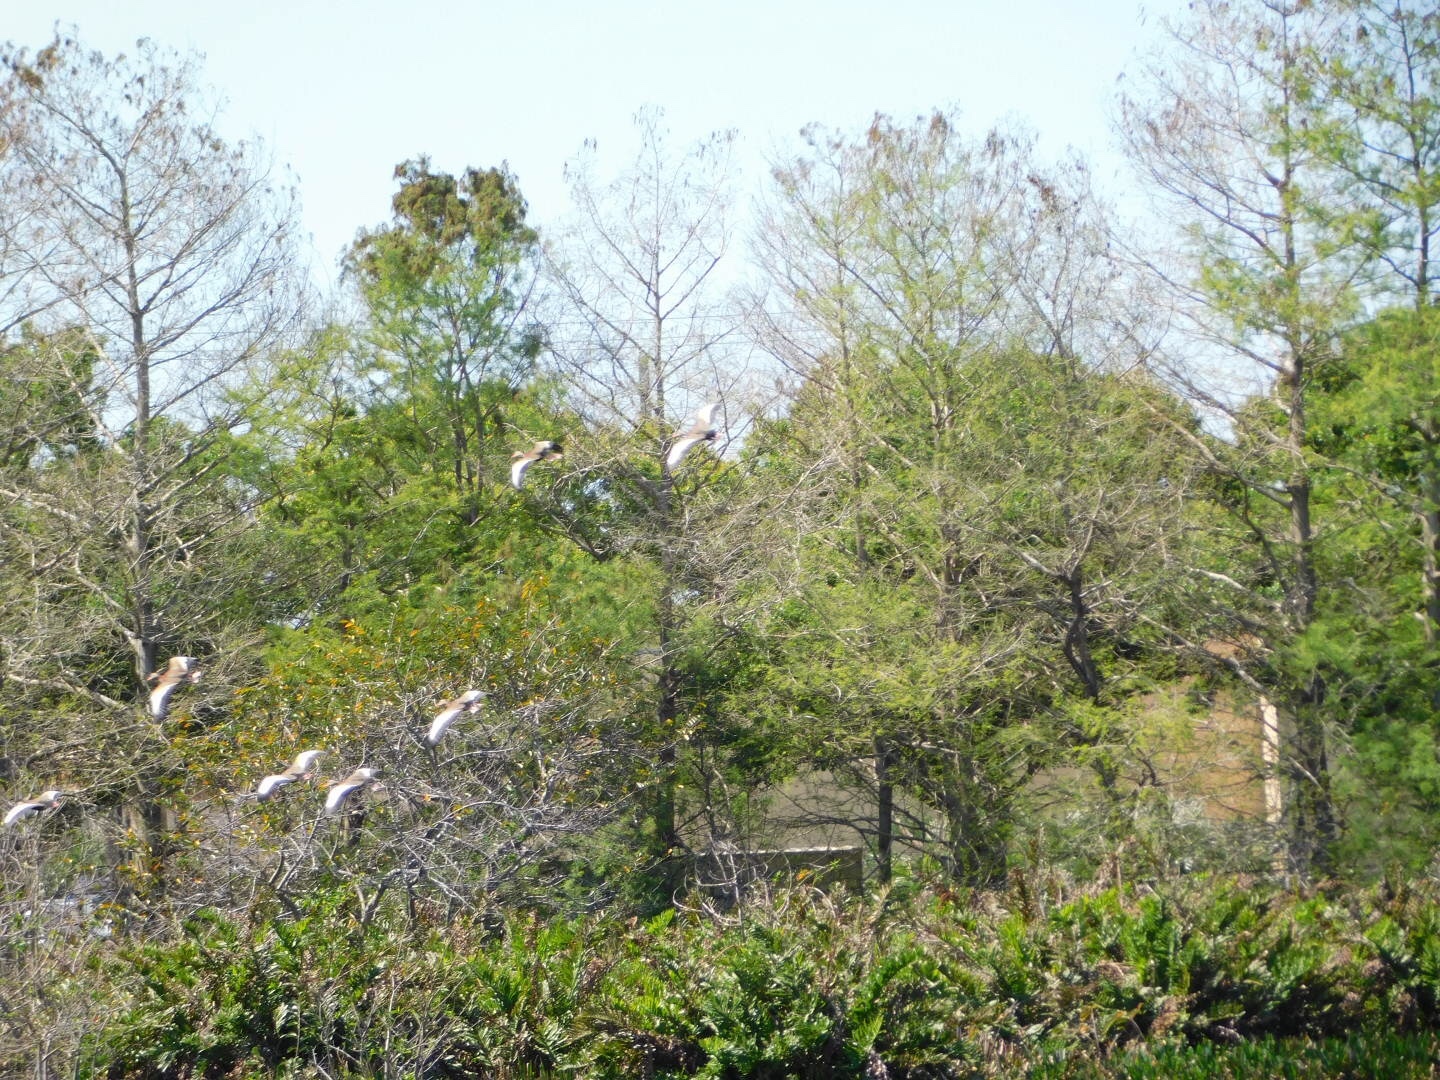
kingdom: Animalia
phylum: Chordata
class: Aves
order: Anseriformes
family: Anatidae
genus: Dendrocygna
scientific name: Dendrocygna autumnalis
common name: Black-bellied whistling duck
